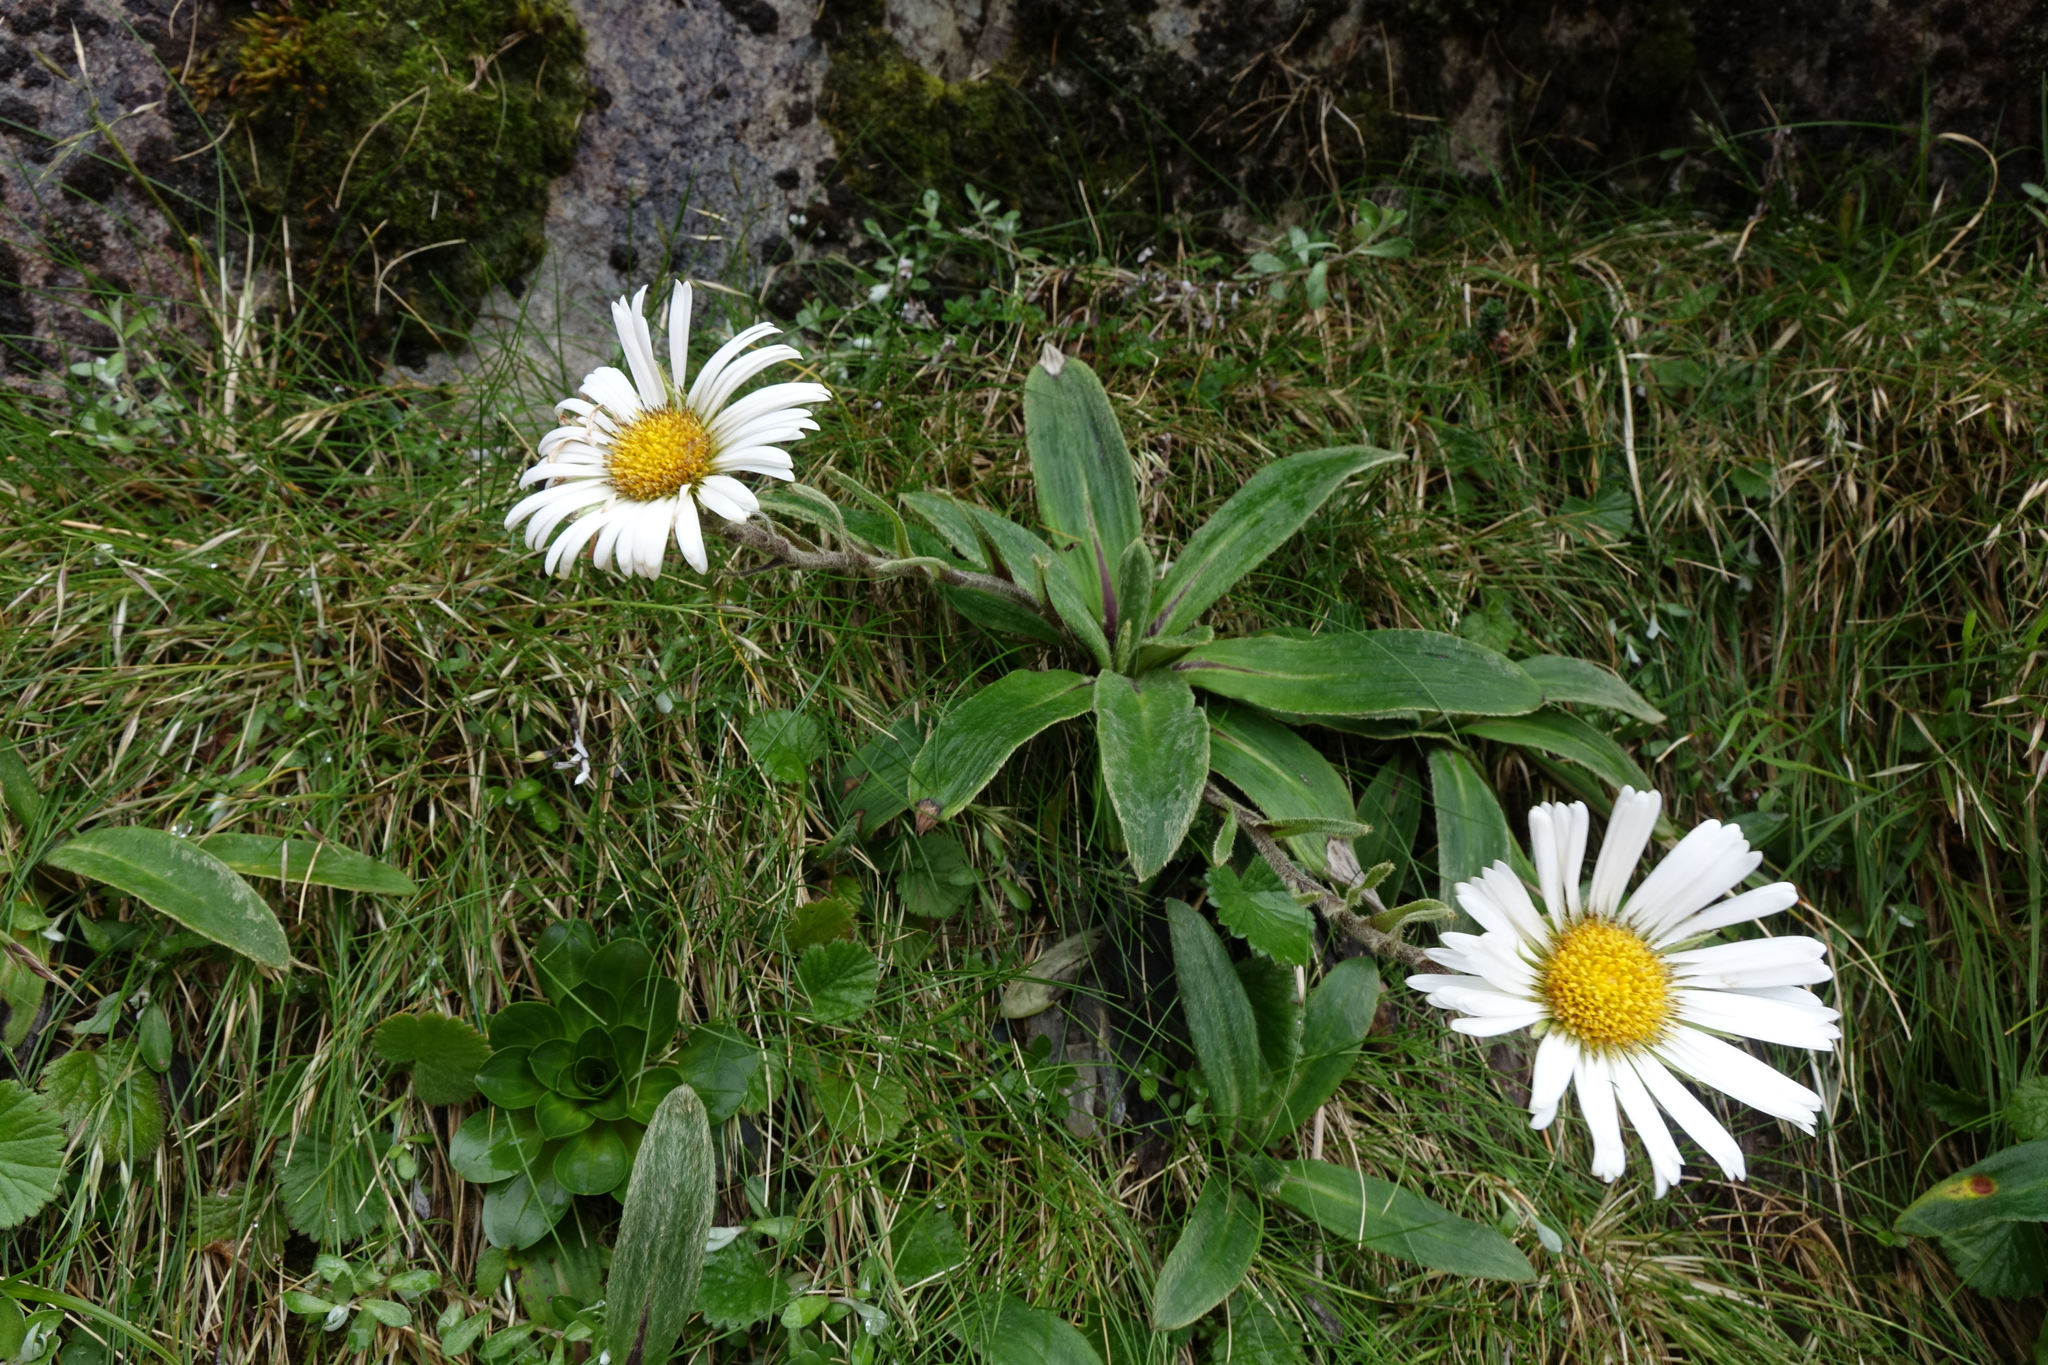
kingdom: Plantae
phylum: Tracheophyta
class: Magnoliopsida
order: Asterales
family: Asteraceae
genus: Celmisia
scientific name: Celmisia verbascifolia
